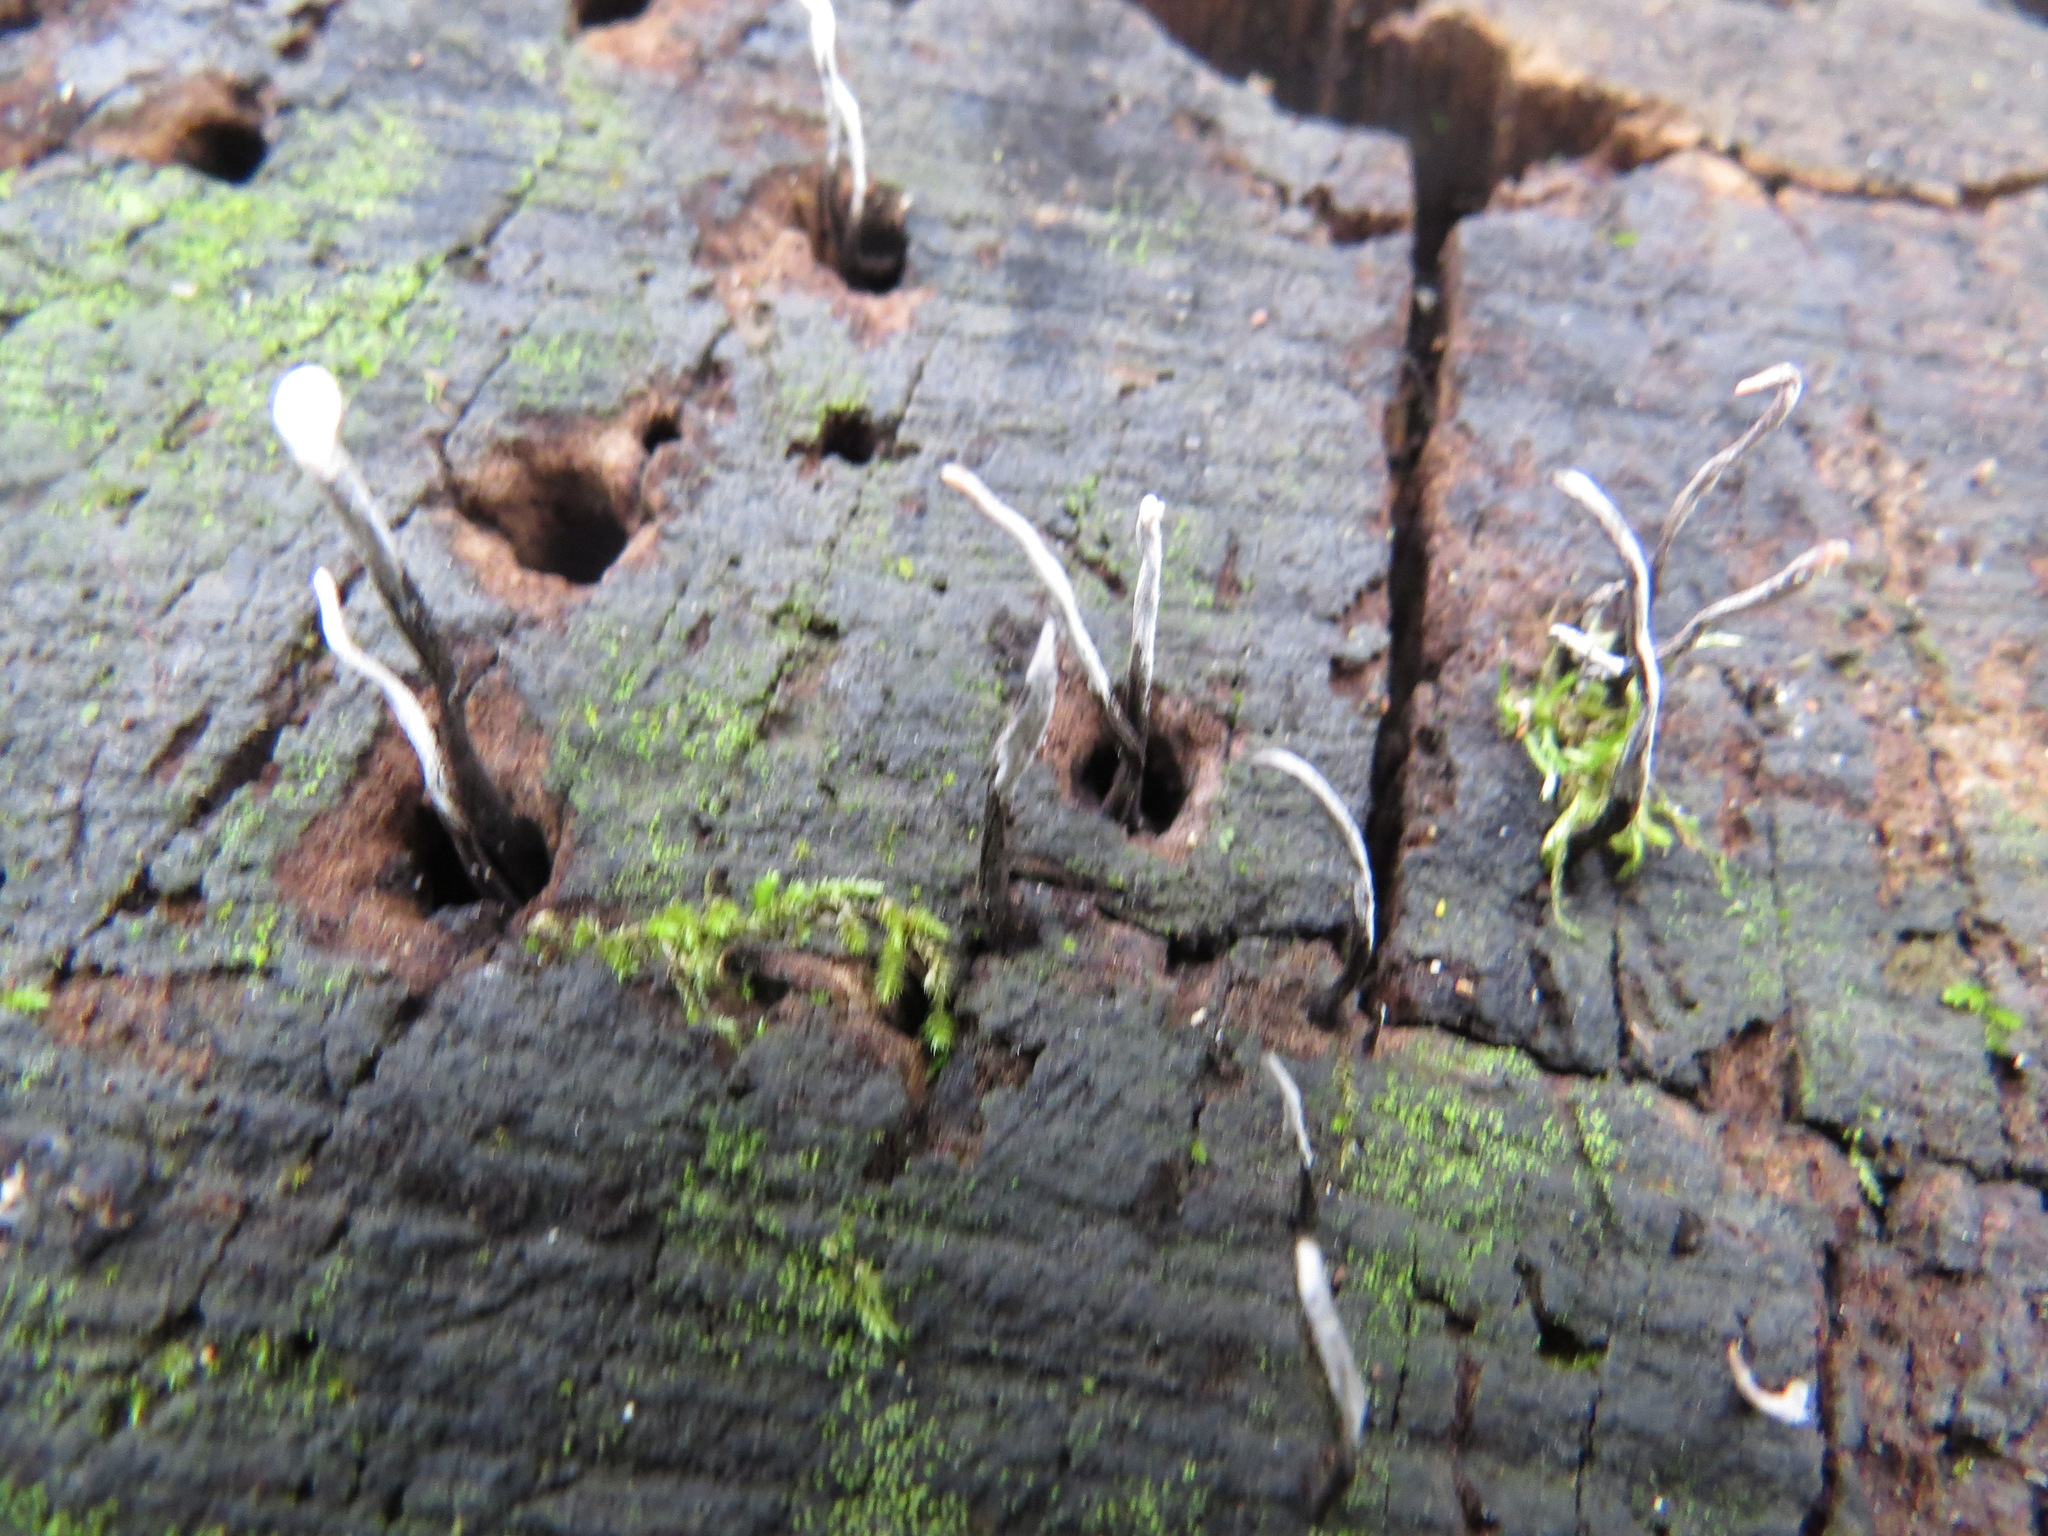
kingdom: Fungi
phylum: Ascomycota
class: Sordariomycetes
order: Xylariales
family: Xylariaceae
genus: Xylaria
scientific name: Xylaria hypoxylon
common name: Candle-snuff fungus
